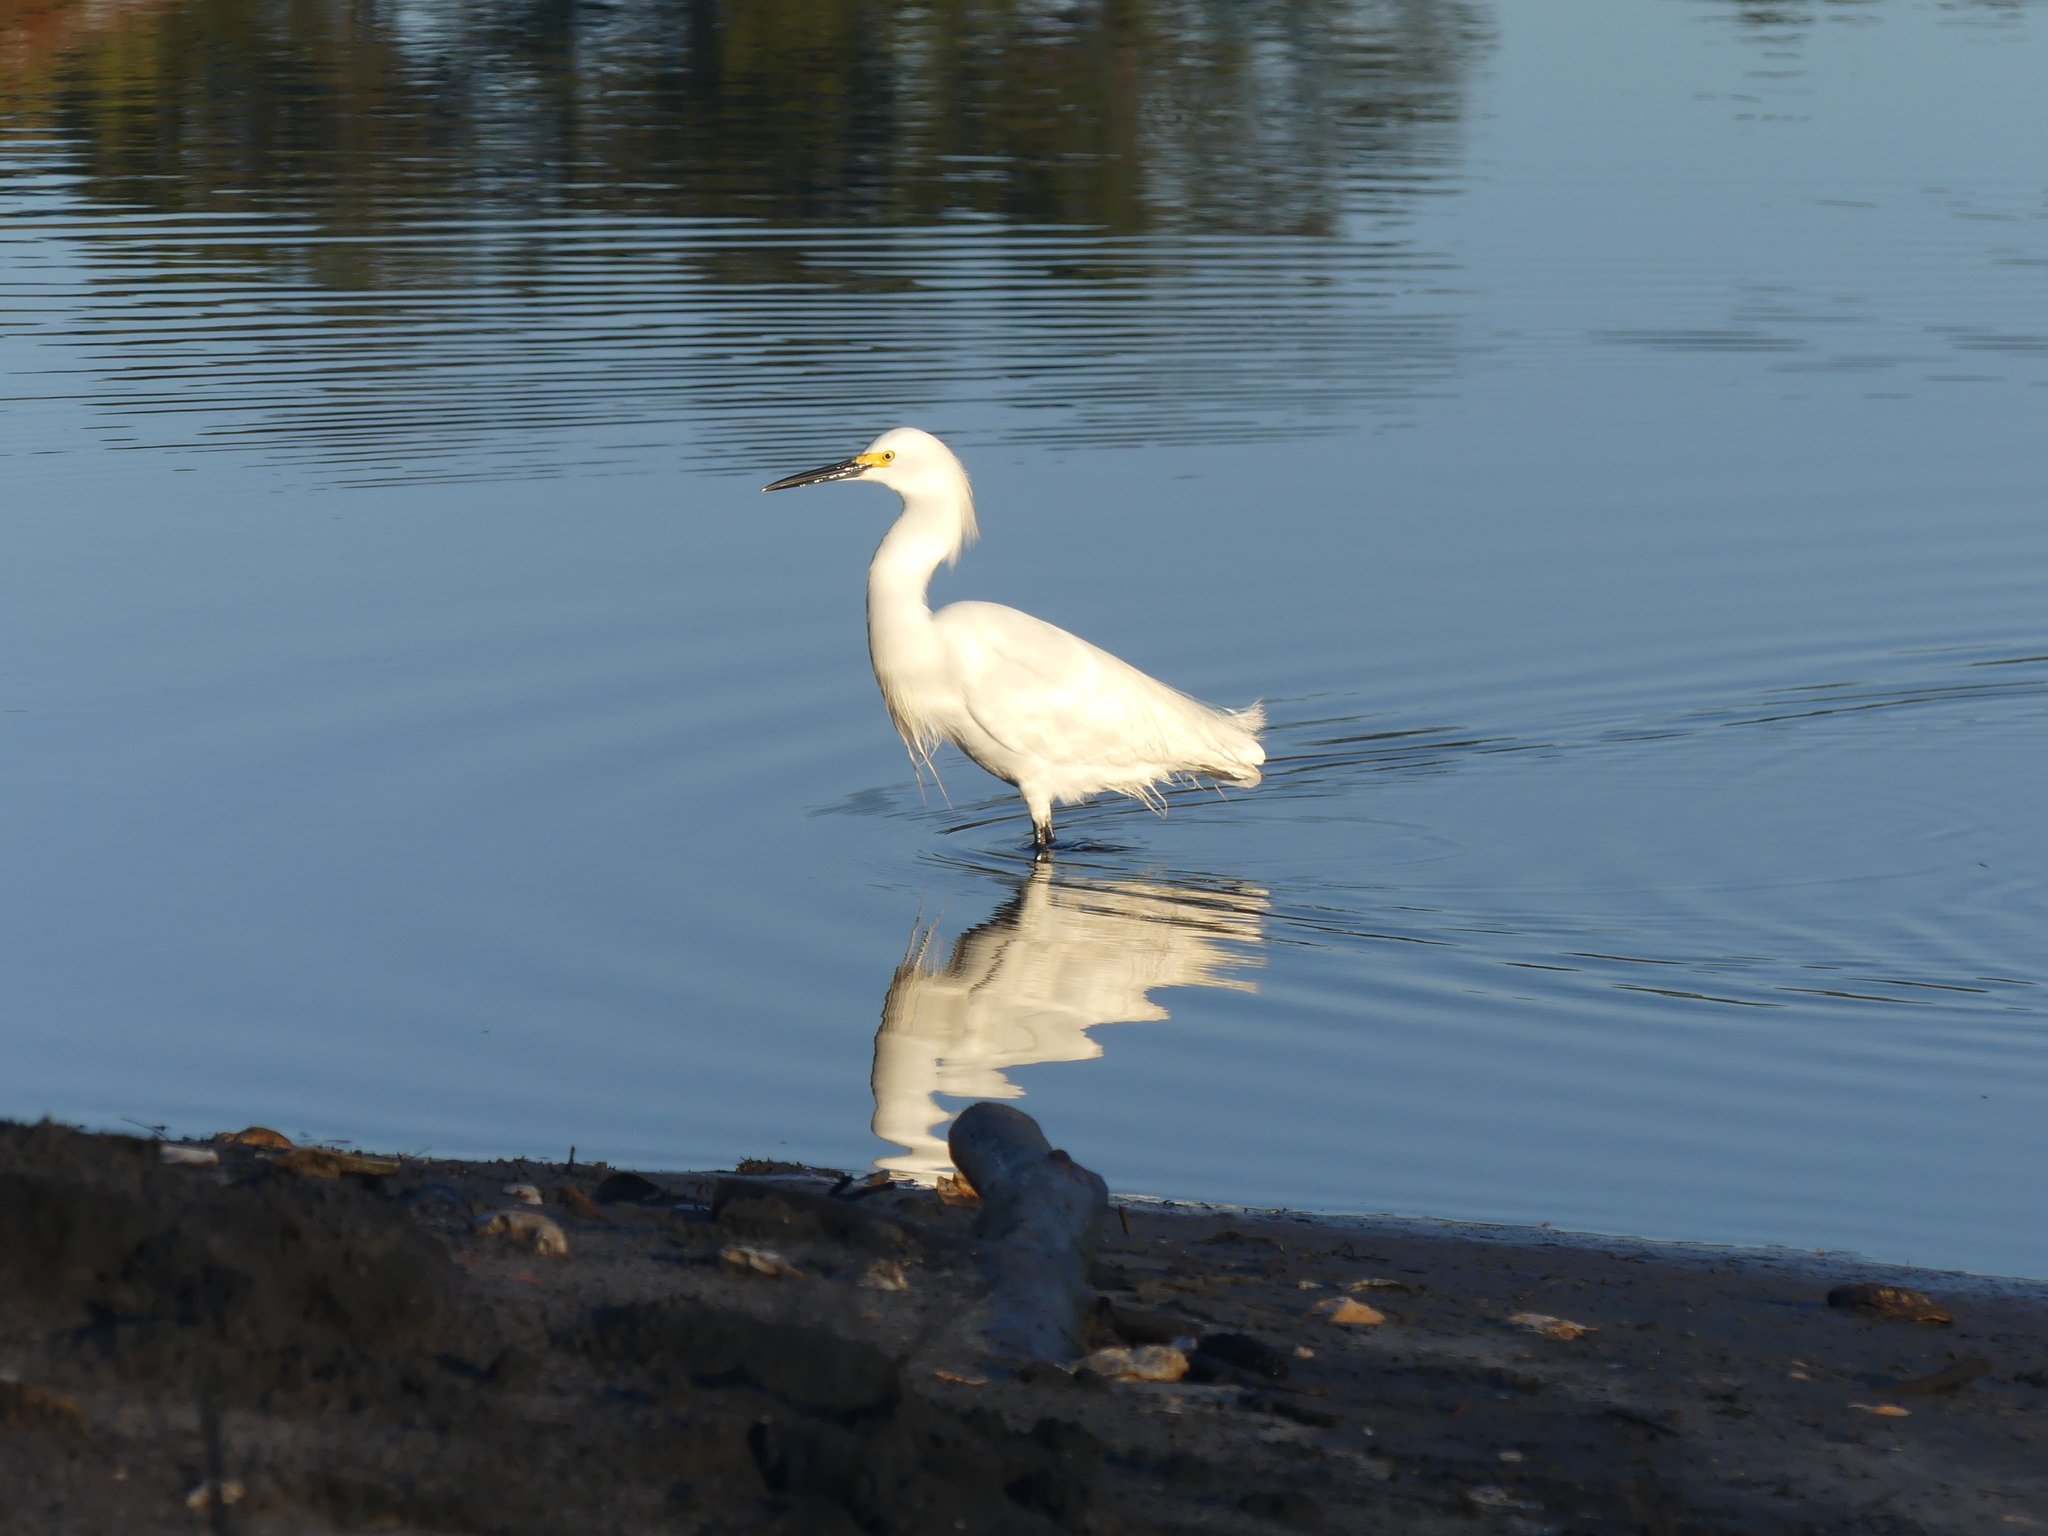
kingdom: Animalia
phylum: Chordata
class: Aves
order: Pelecaniformes
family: Ardeidae
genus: Egretta
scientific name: Egretta thula
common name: Snowy egret
